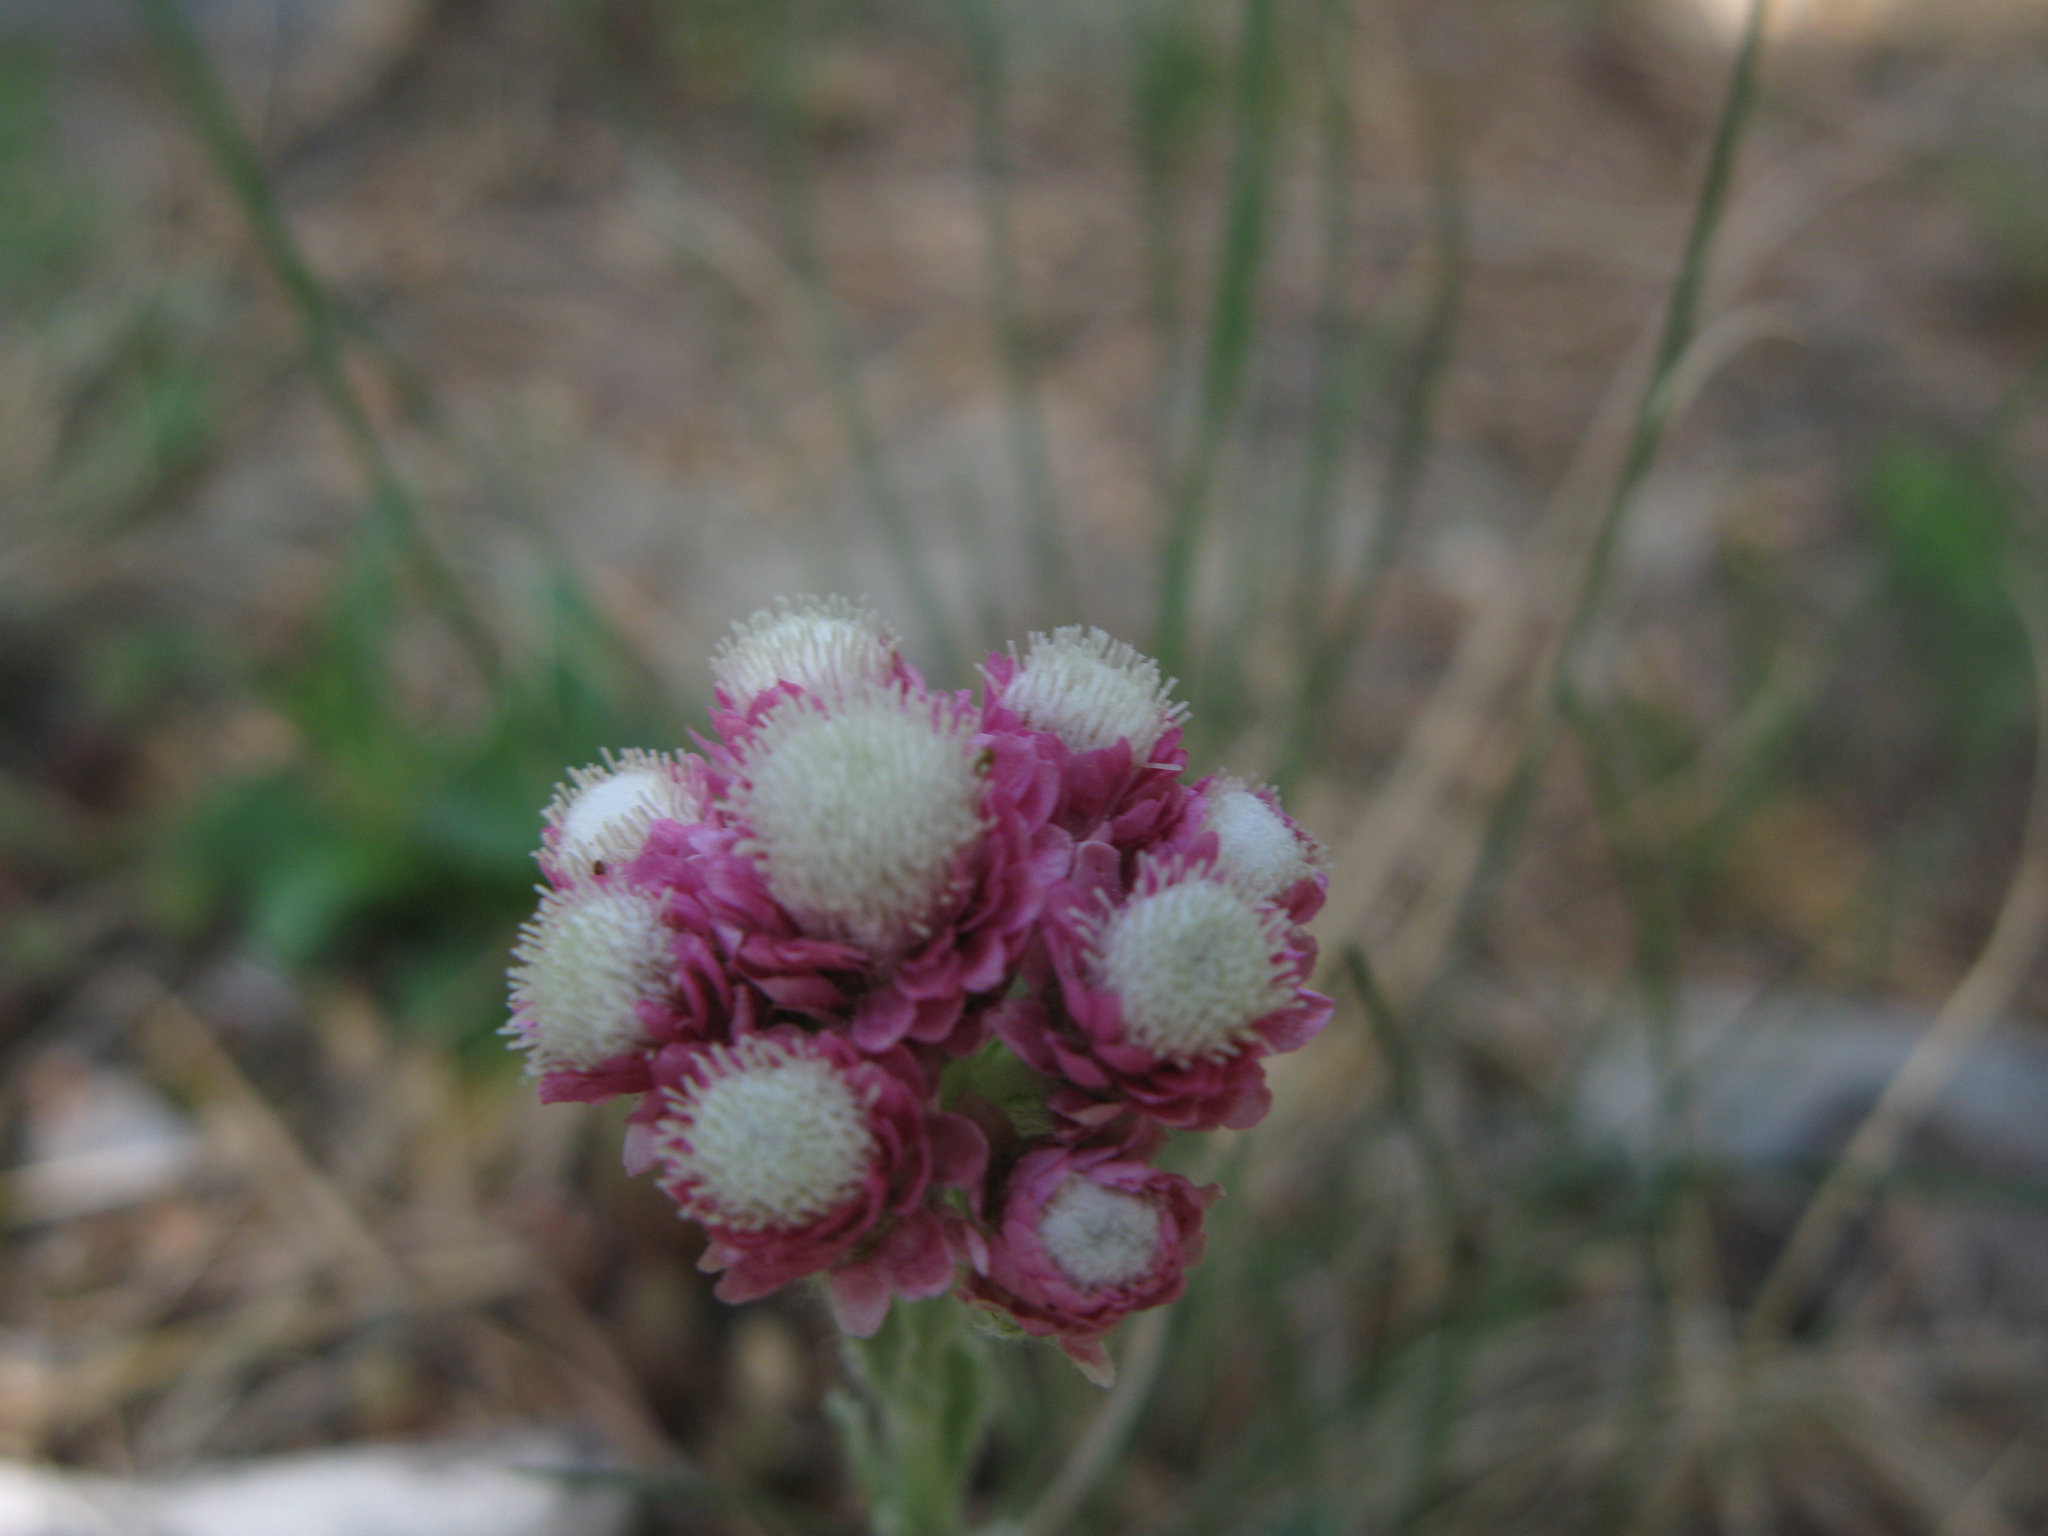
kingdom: Plantae
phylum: Tracheophyta
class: Magnoliopsida
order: Asterales
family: Asteraceae
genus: Antennaria
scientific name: Antennaria dioica
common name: Mountain everlasting
